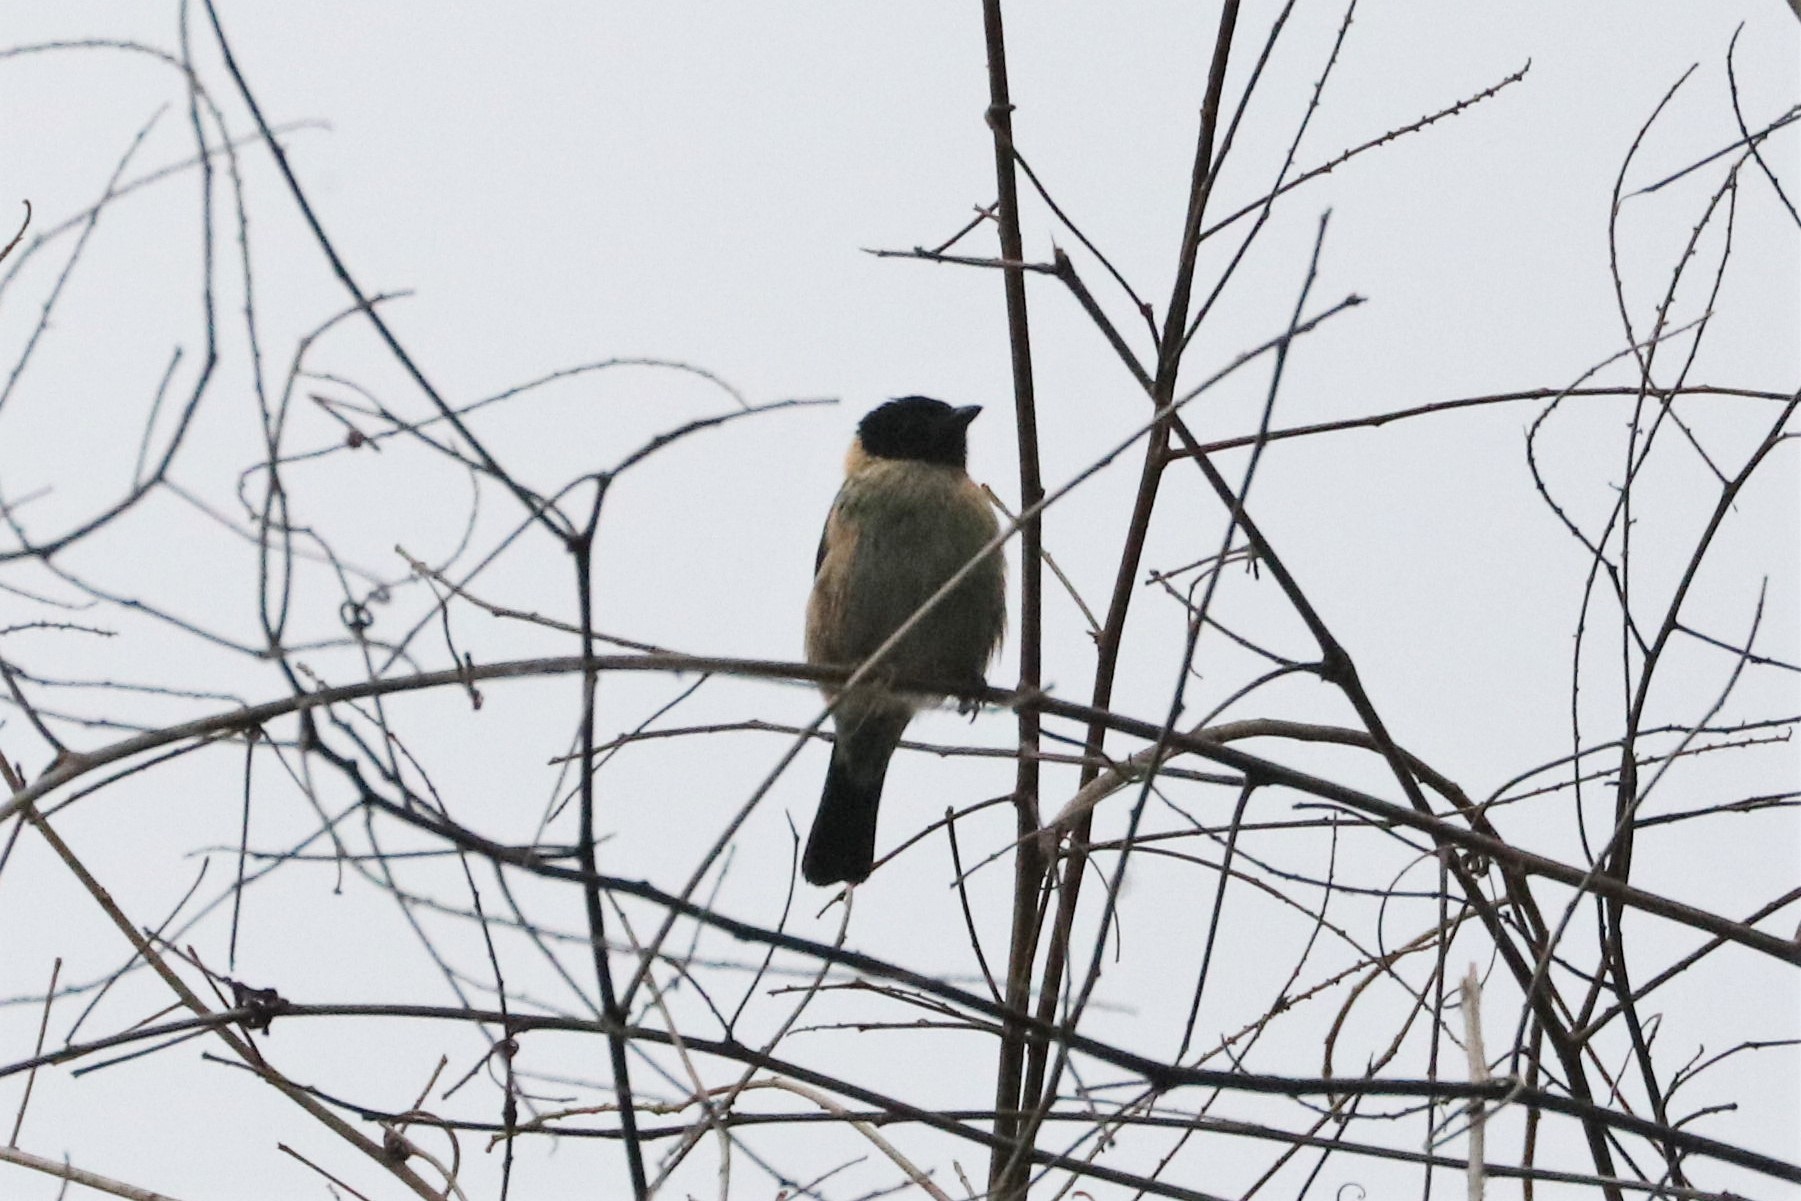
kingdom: Animalia
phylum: Chordata
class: Aves
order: Passeriformes
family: Thraupidae
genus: Stilpnia
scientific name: Stilpnia cyanoptera
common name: Black-headed tanager
